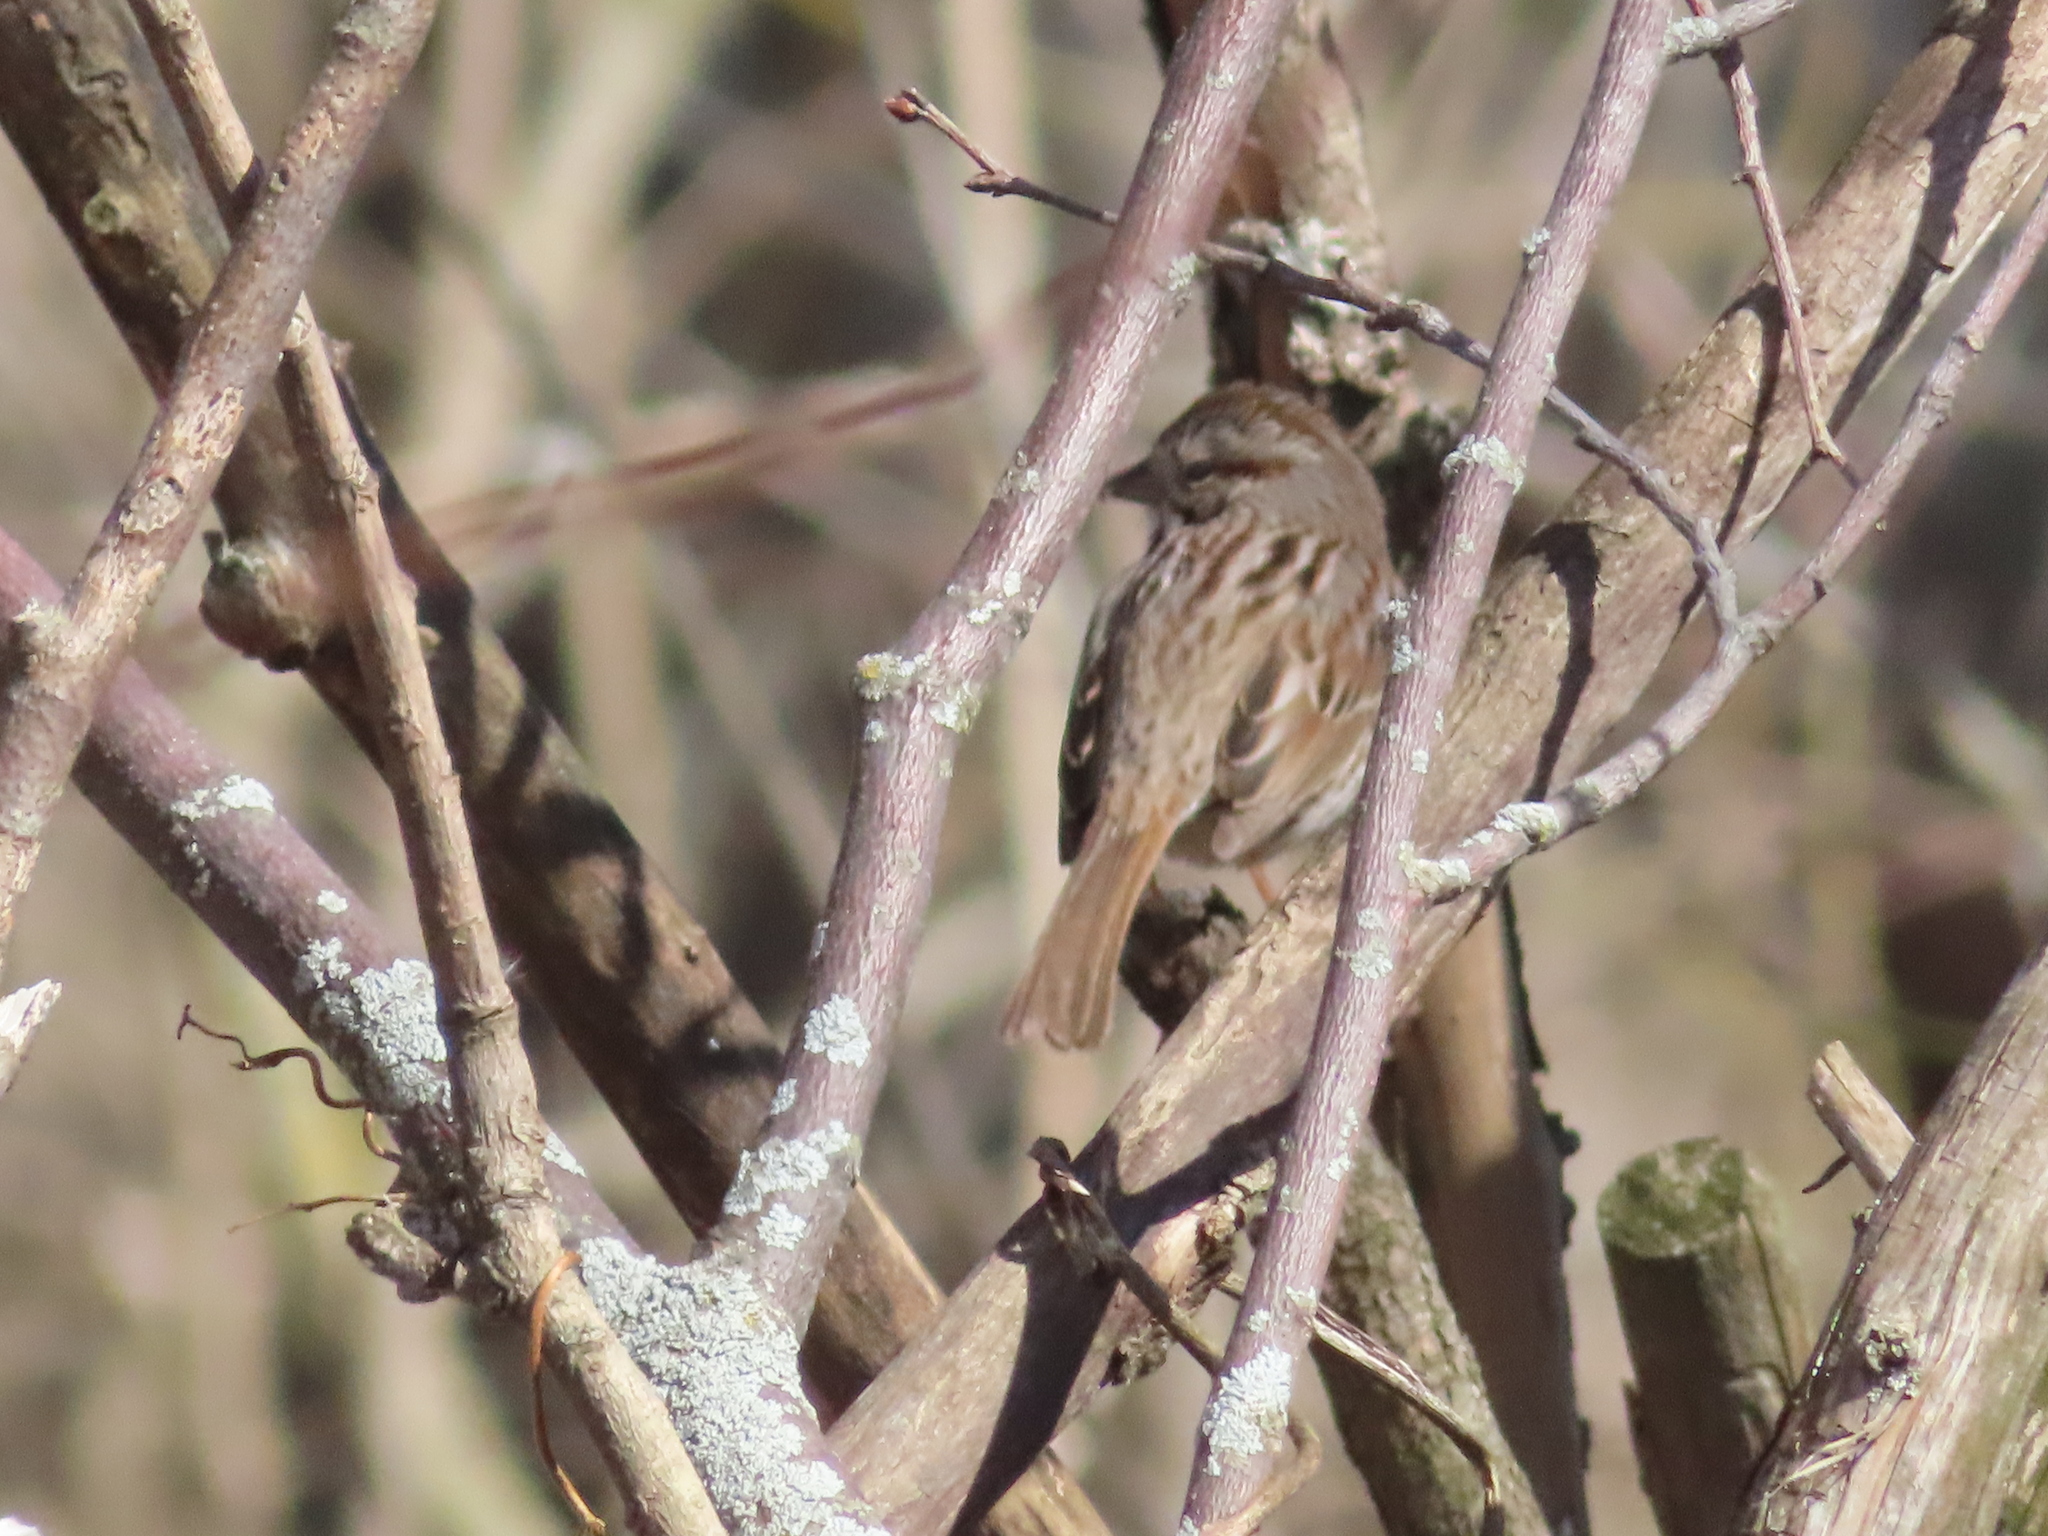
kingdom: Animalia
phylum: Chordata
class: Aves
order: Passeriformes
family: Passerellidae
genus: Melospiza
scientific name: Melospiza melodia
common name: Song sparrow
